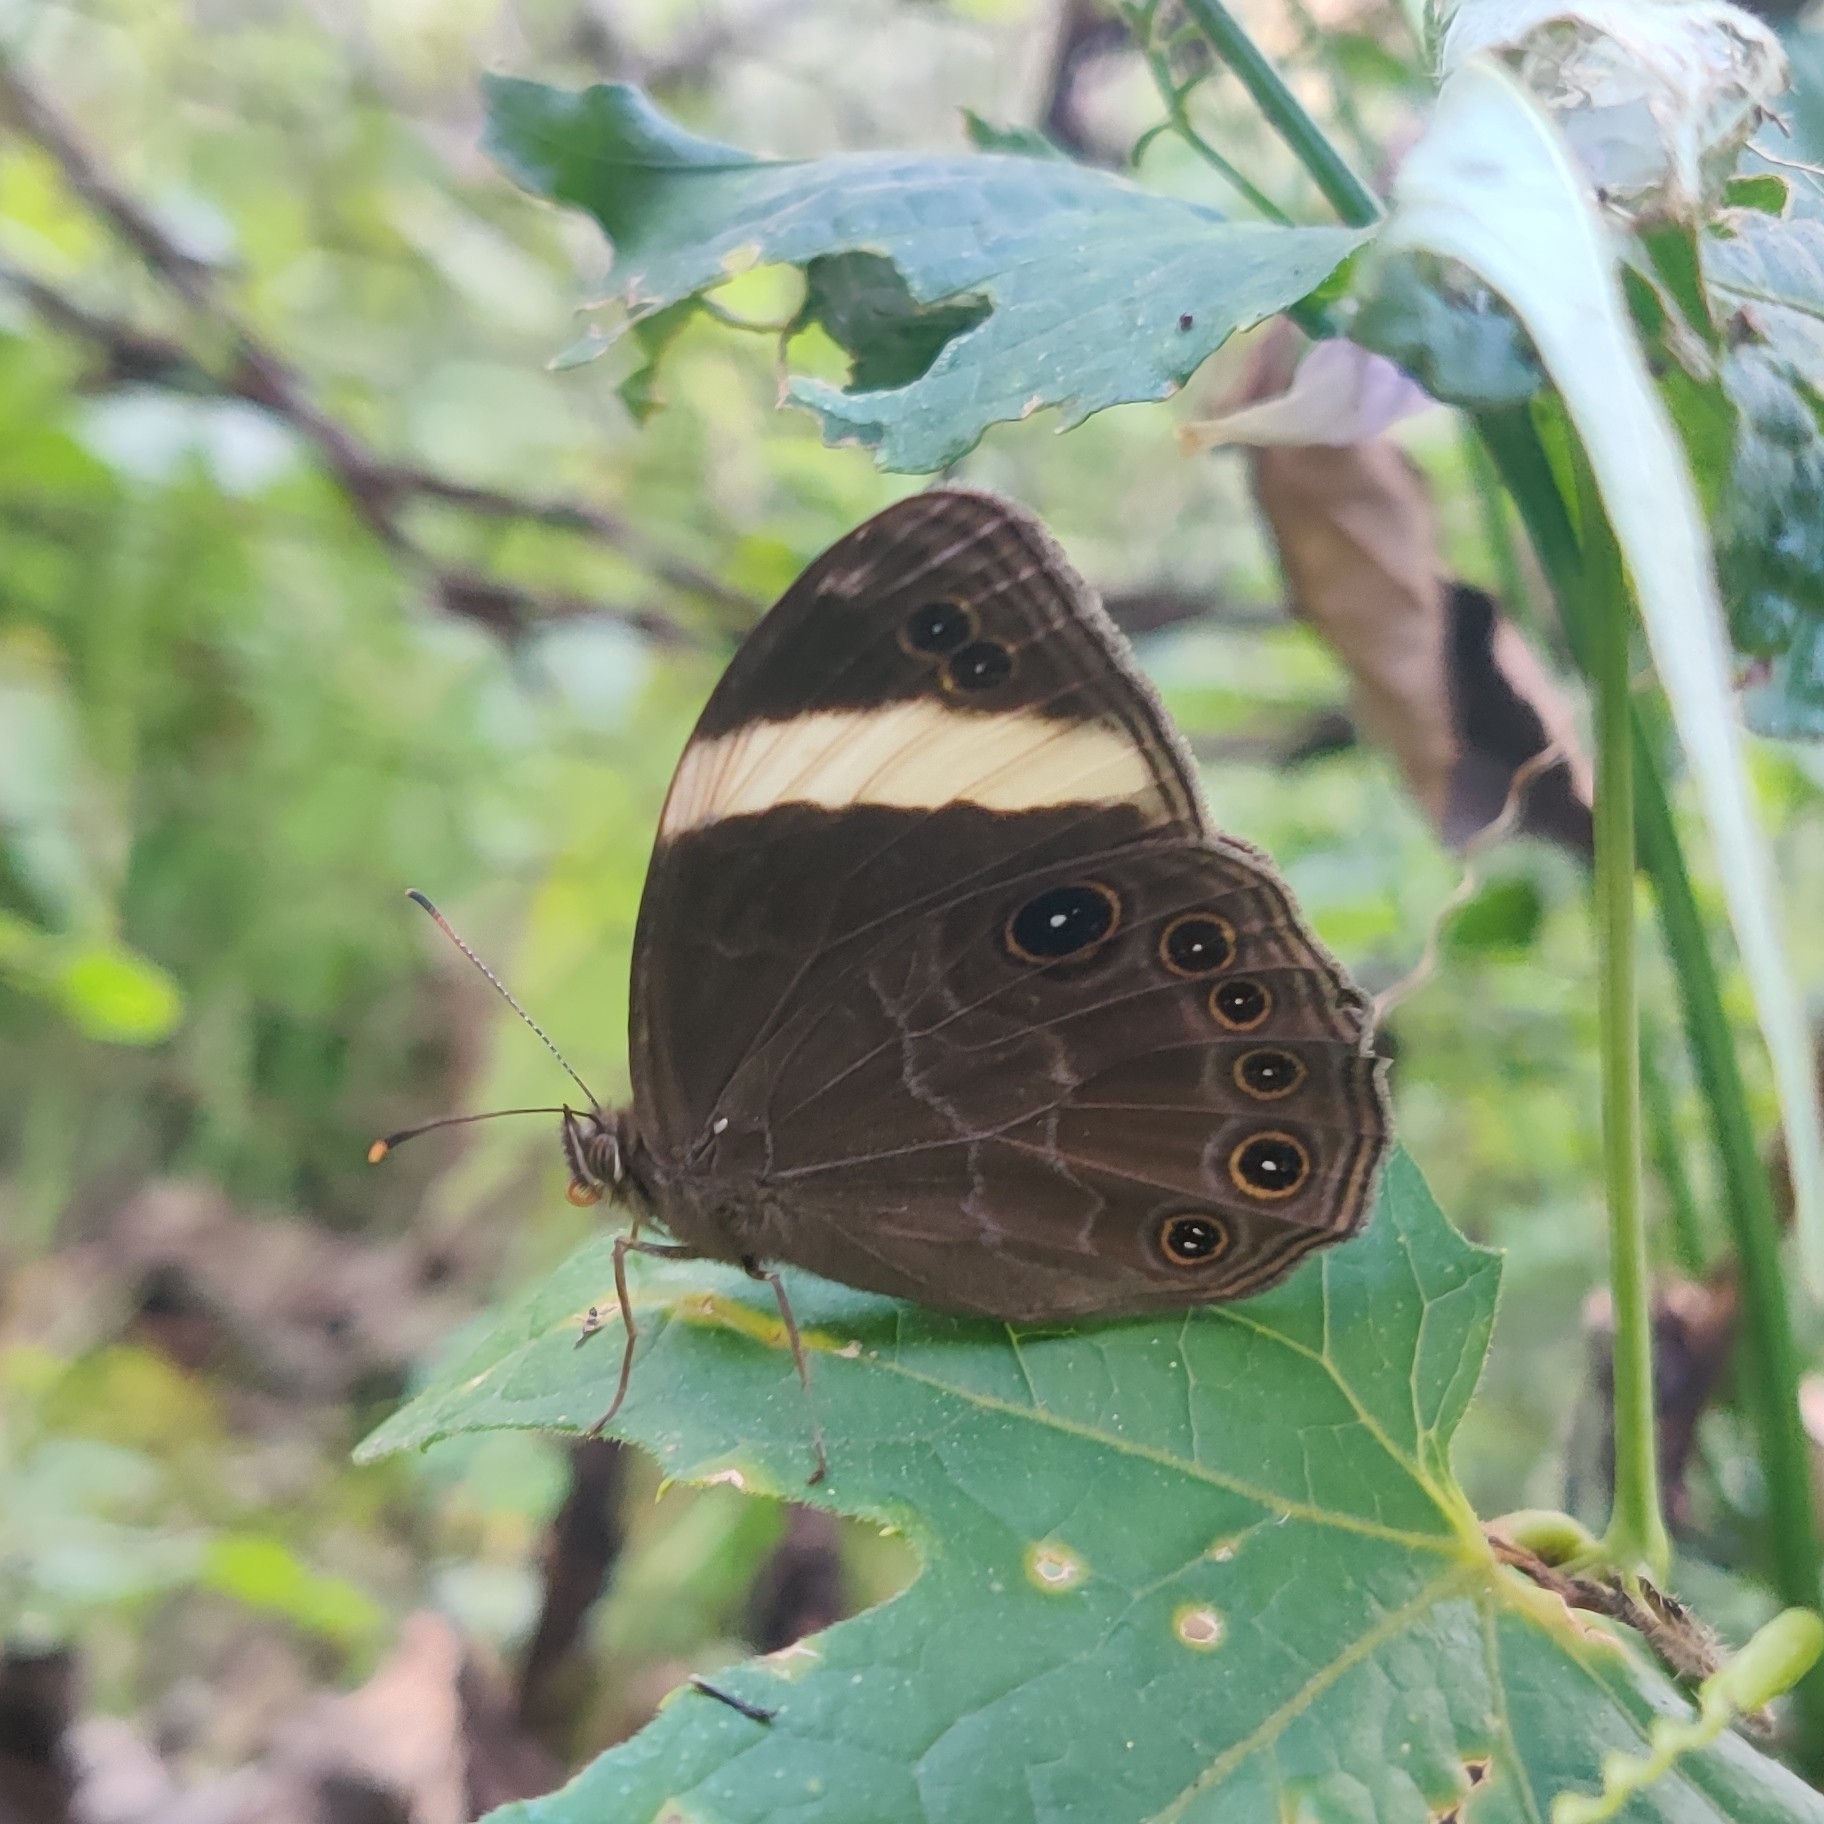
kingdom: Animalia
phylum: Arthropoda
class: Insecta
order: Lepidoptera
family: Nymphalidae
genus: Lethe
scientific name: Lethe verma
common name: Straight-banded treebrown
